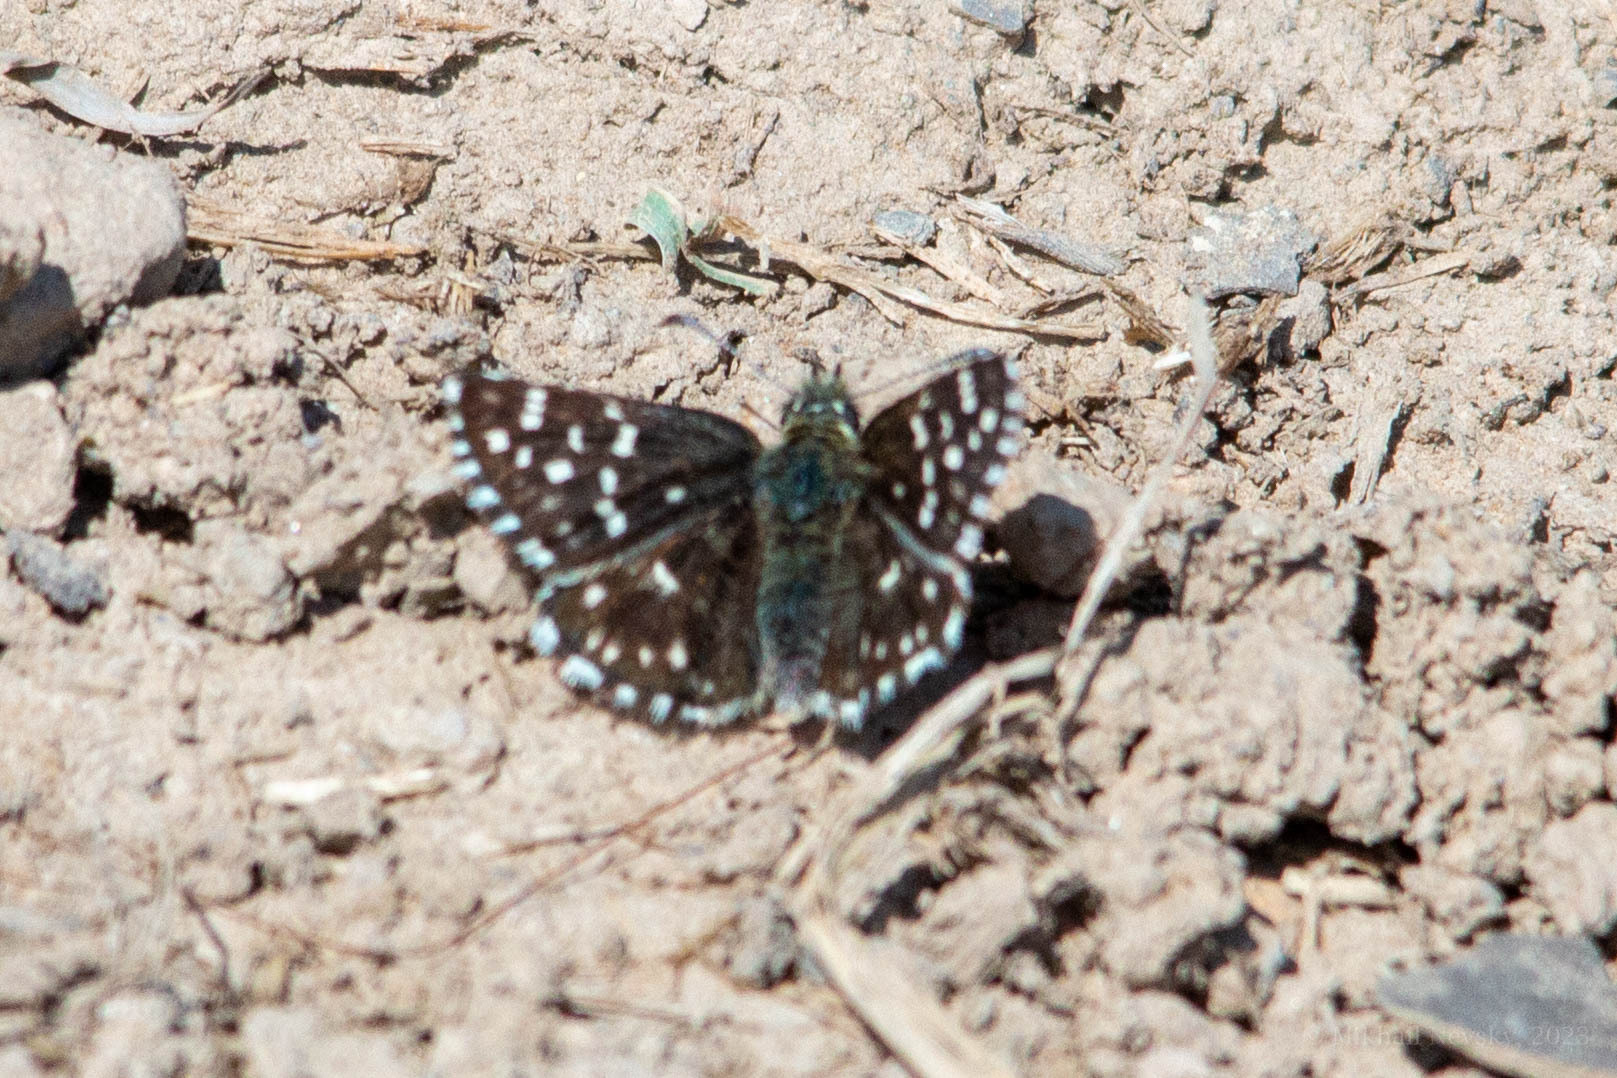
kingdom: Animalia
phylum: Arthropoda
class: Insecta
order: Lepidoptera
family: Hesperiidae
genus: Pyrgus
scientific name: Pyrgus melotis
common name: Aegean skipper
